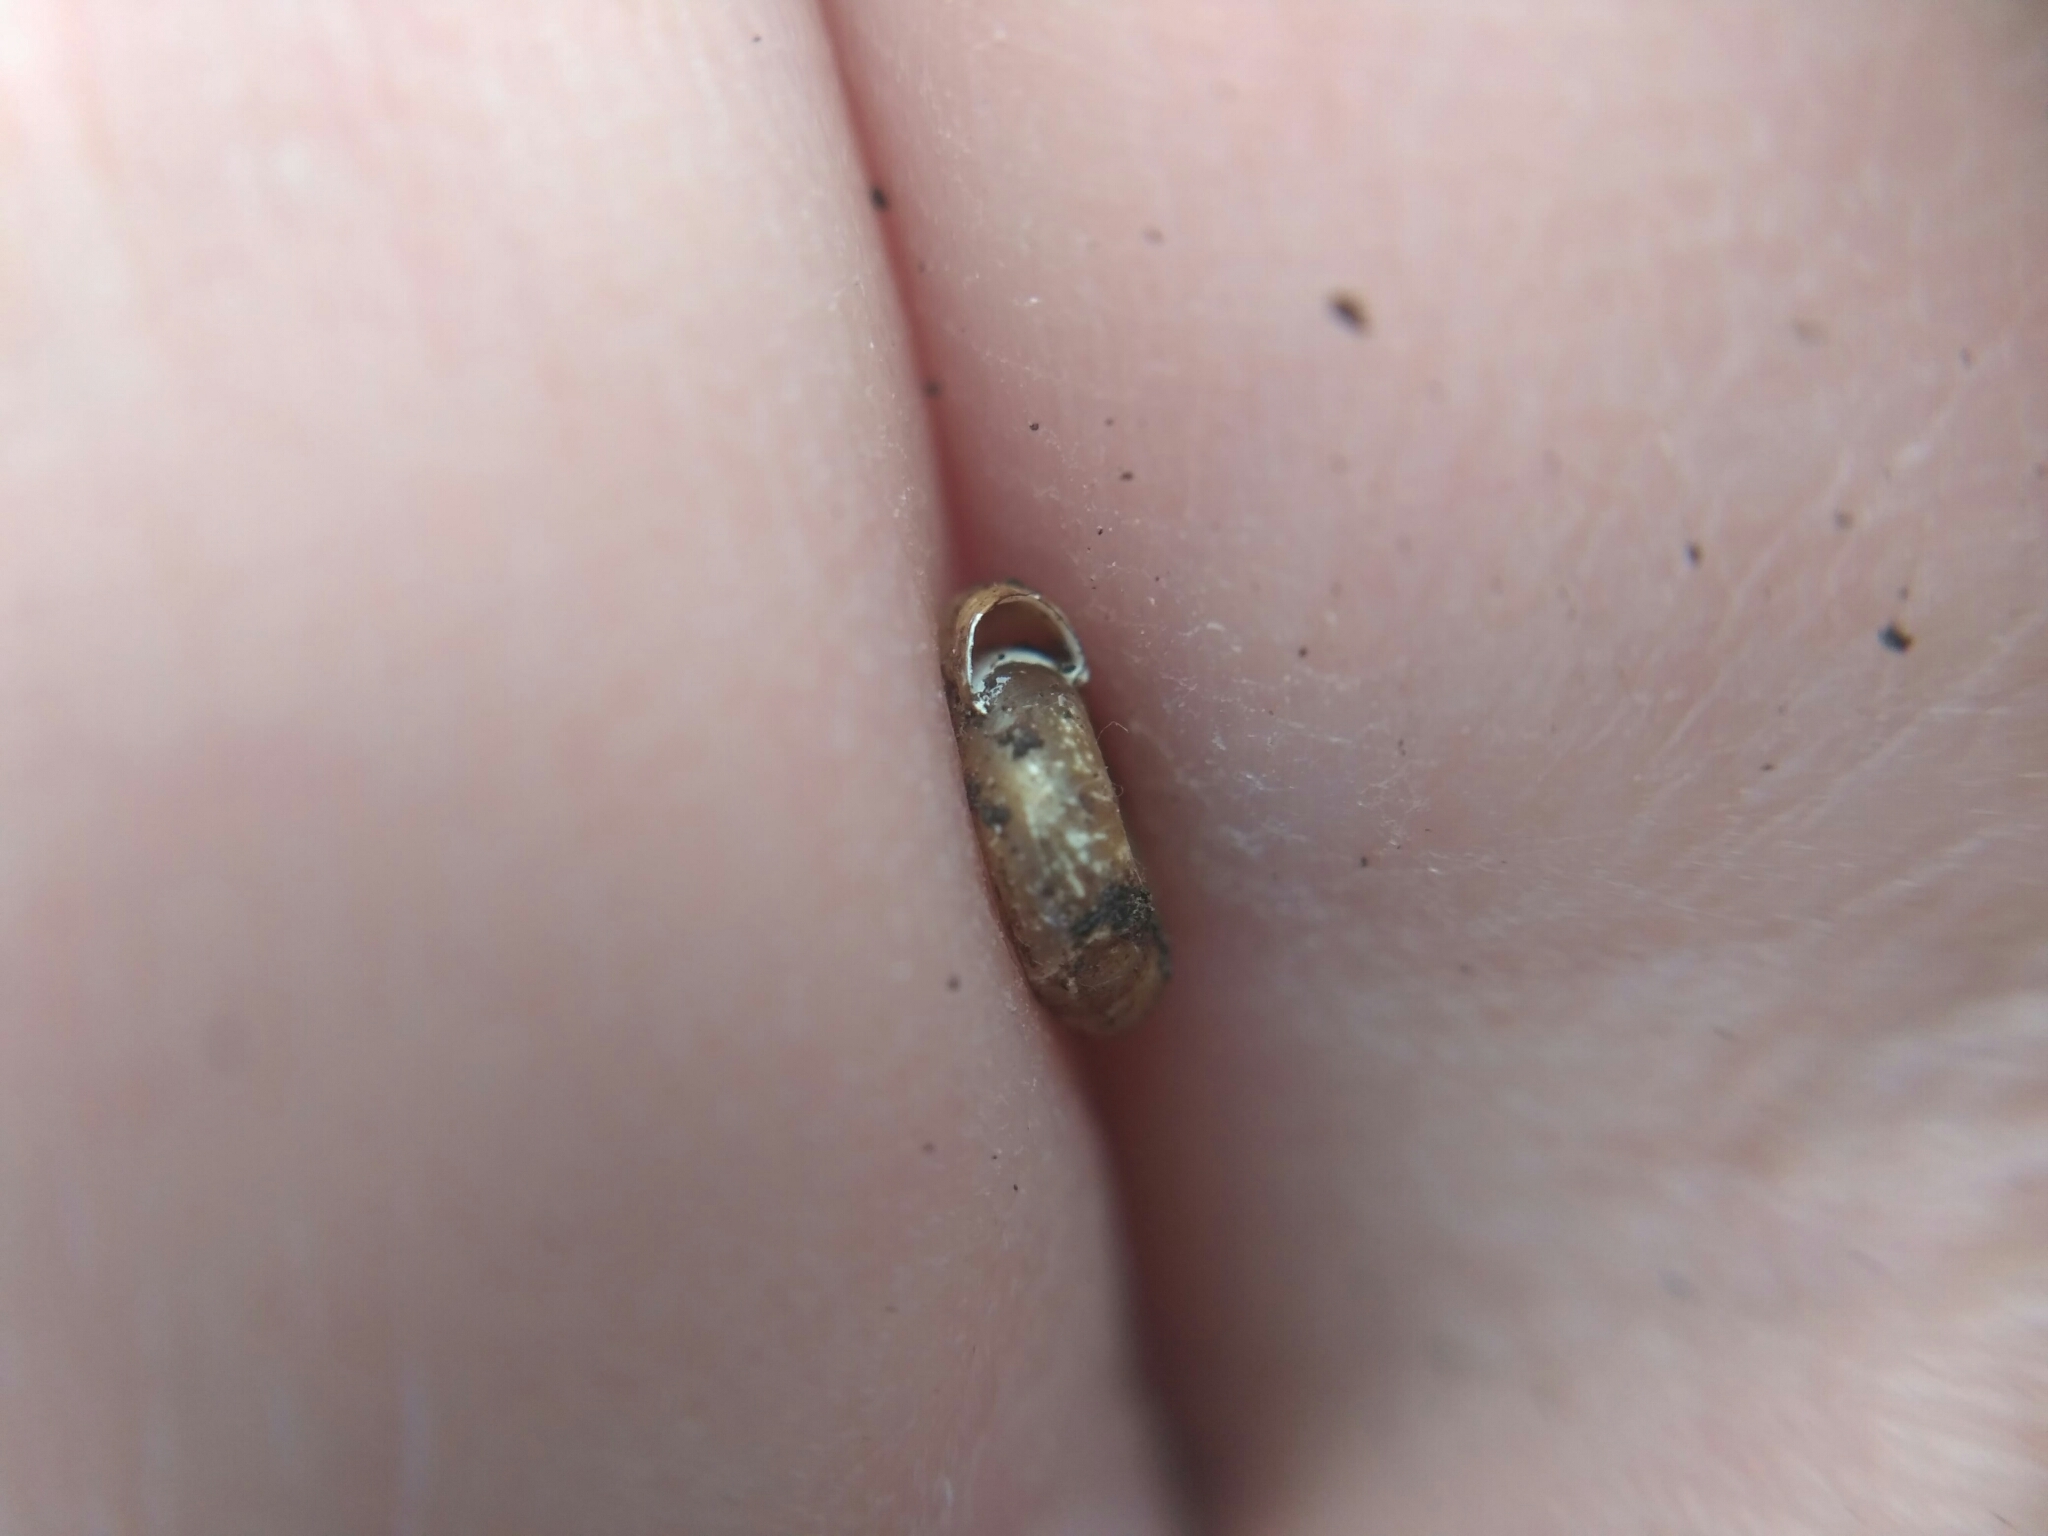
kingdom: Animalia
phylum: Mollusca
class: Gastropoda
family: Planorbidae
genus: Bathyomphalus
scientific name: Bathyomphalus contortus
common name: Twisted ramshorn
